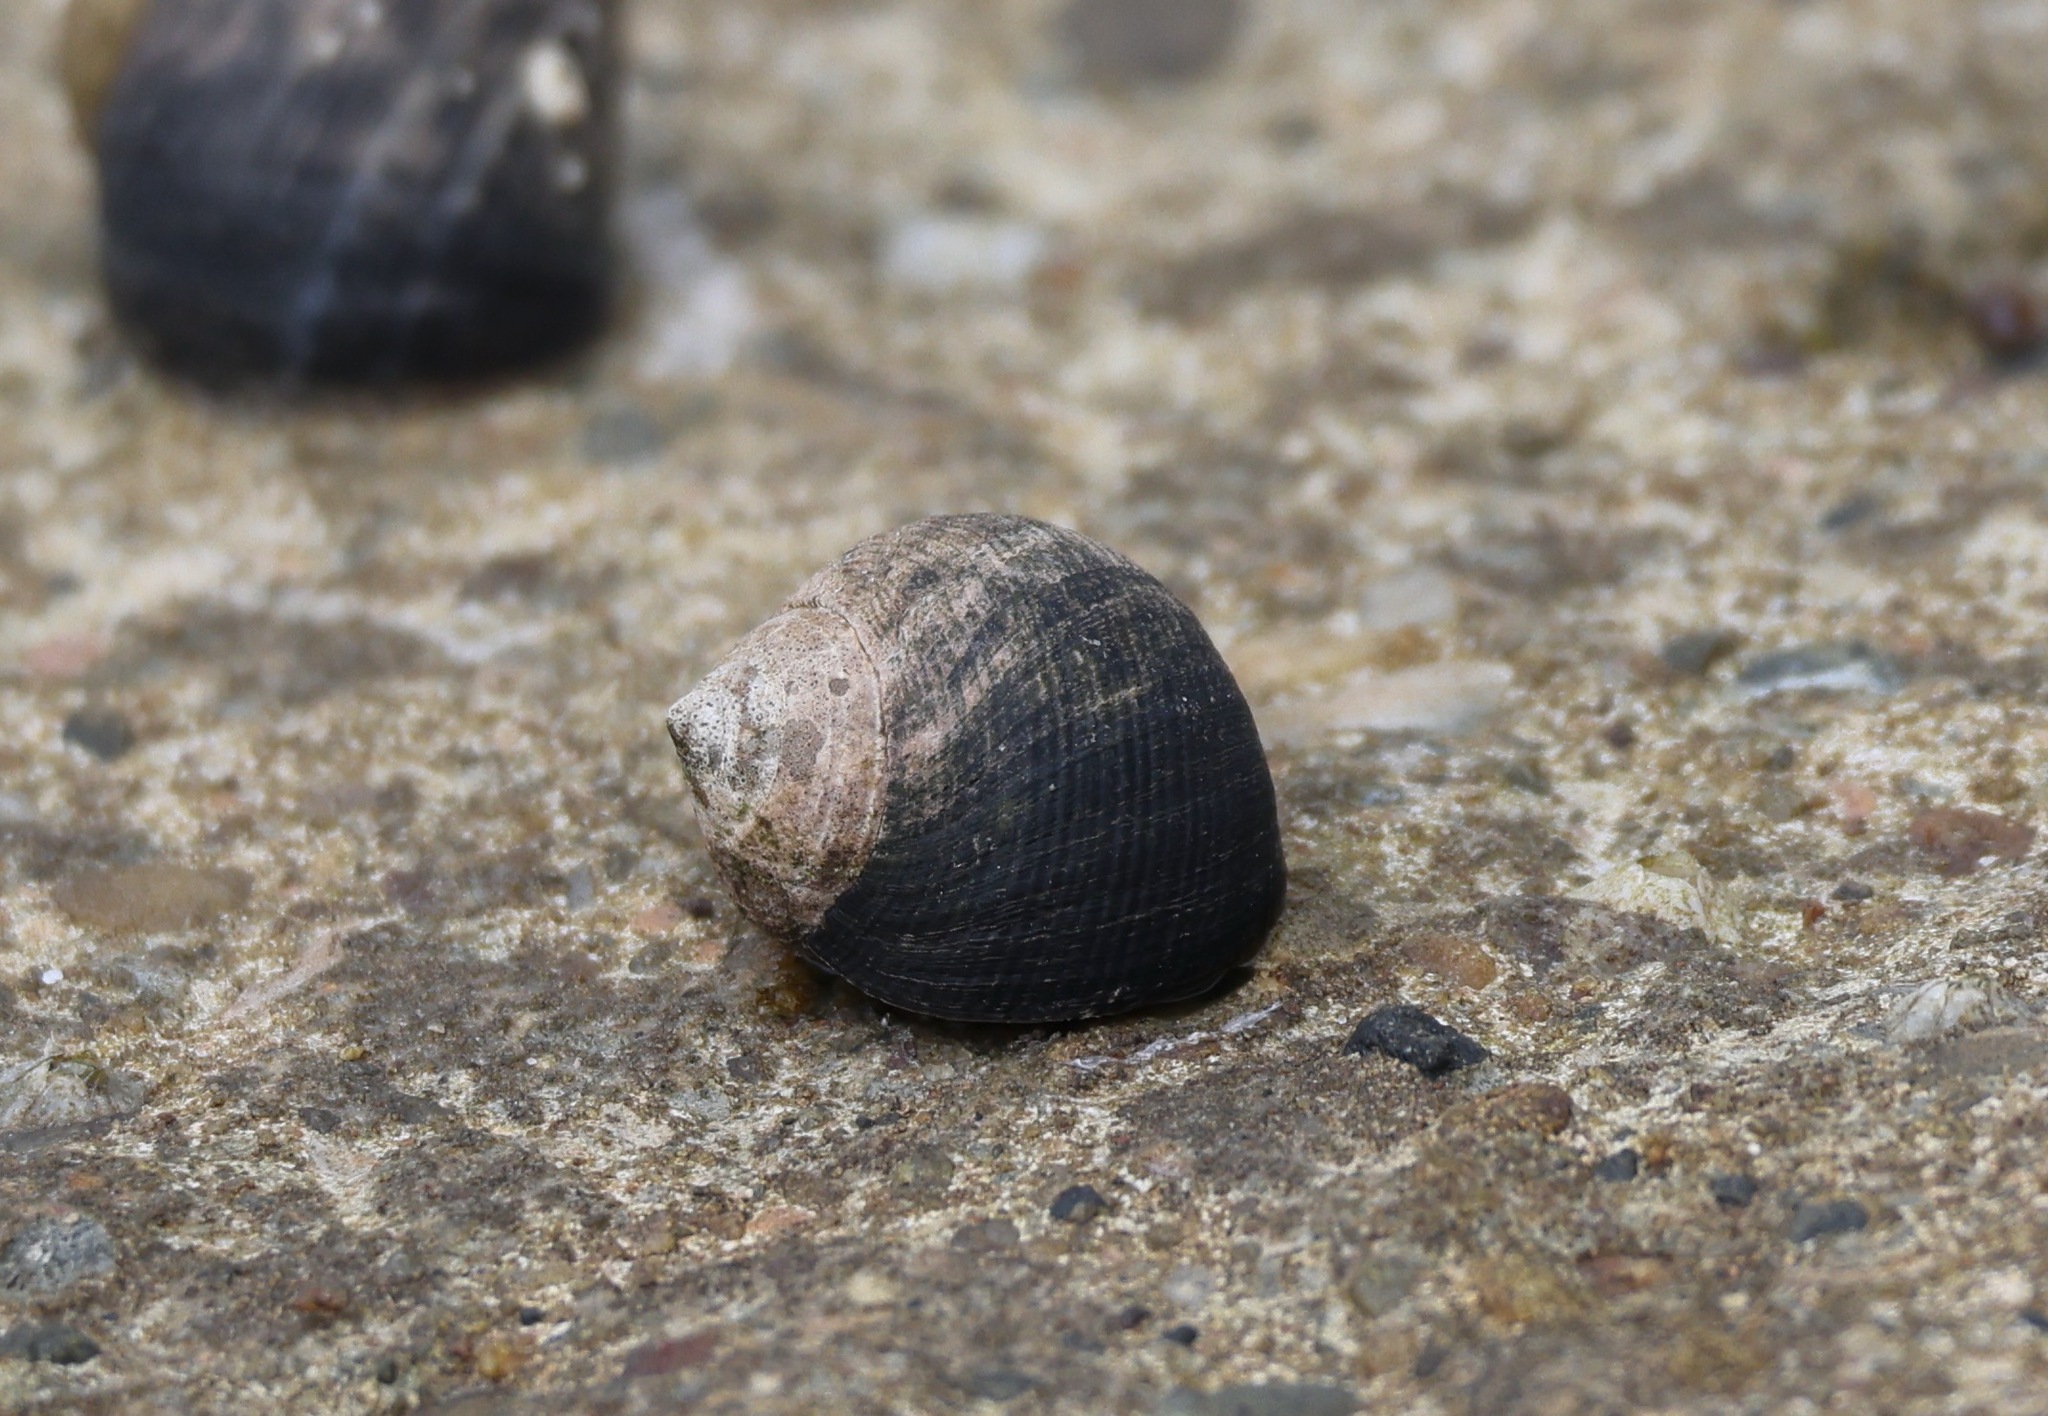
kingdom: Animalia
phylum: Mollusca
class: Gastropoda
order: Littorinimorpha
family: Littorinidae
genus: Littorina
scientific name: Littorina littorea
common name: Common periwinkle
